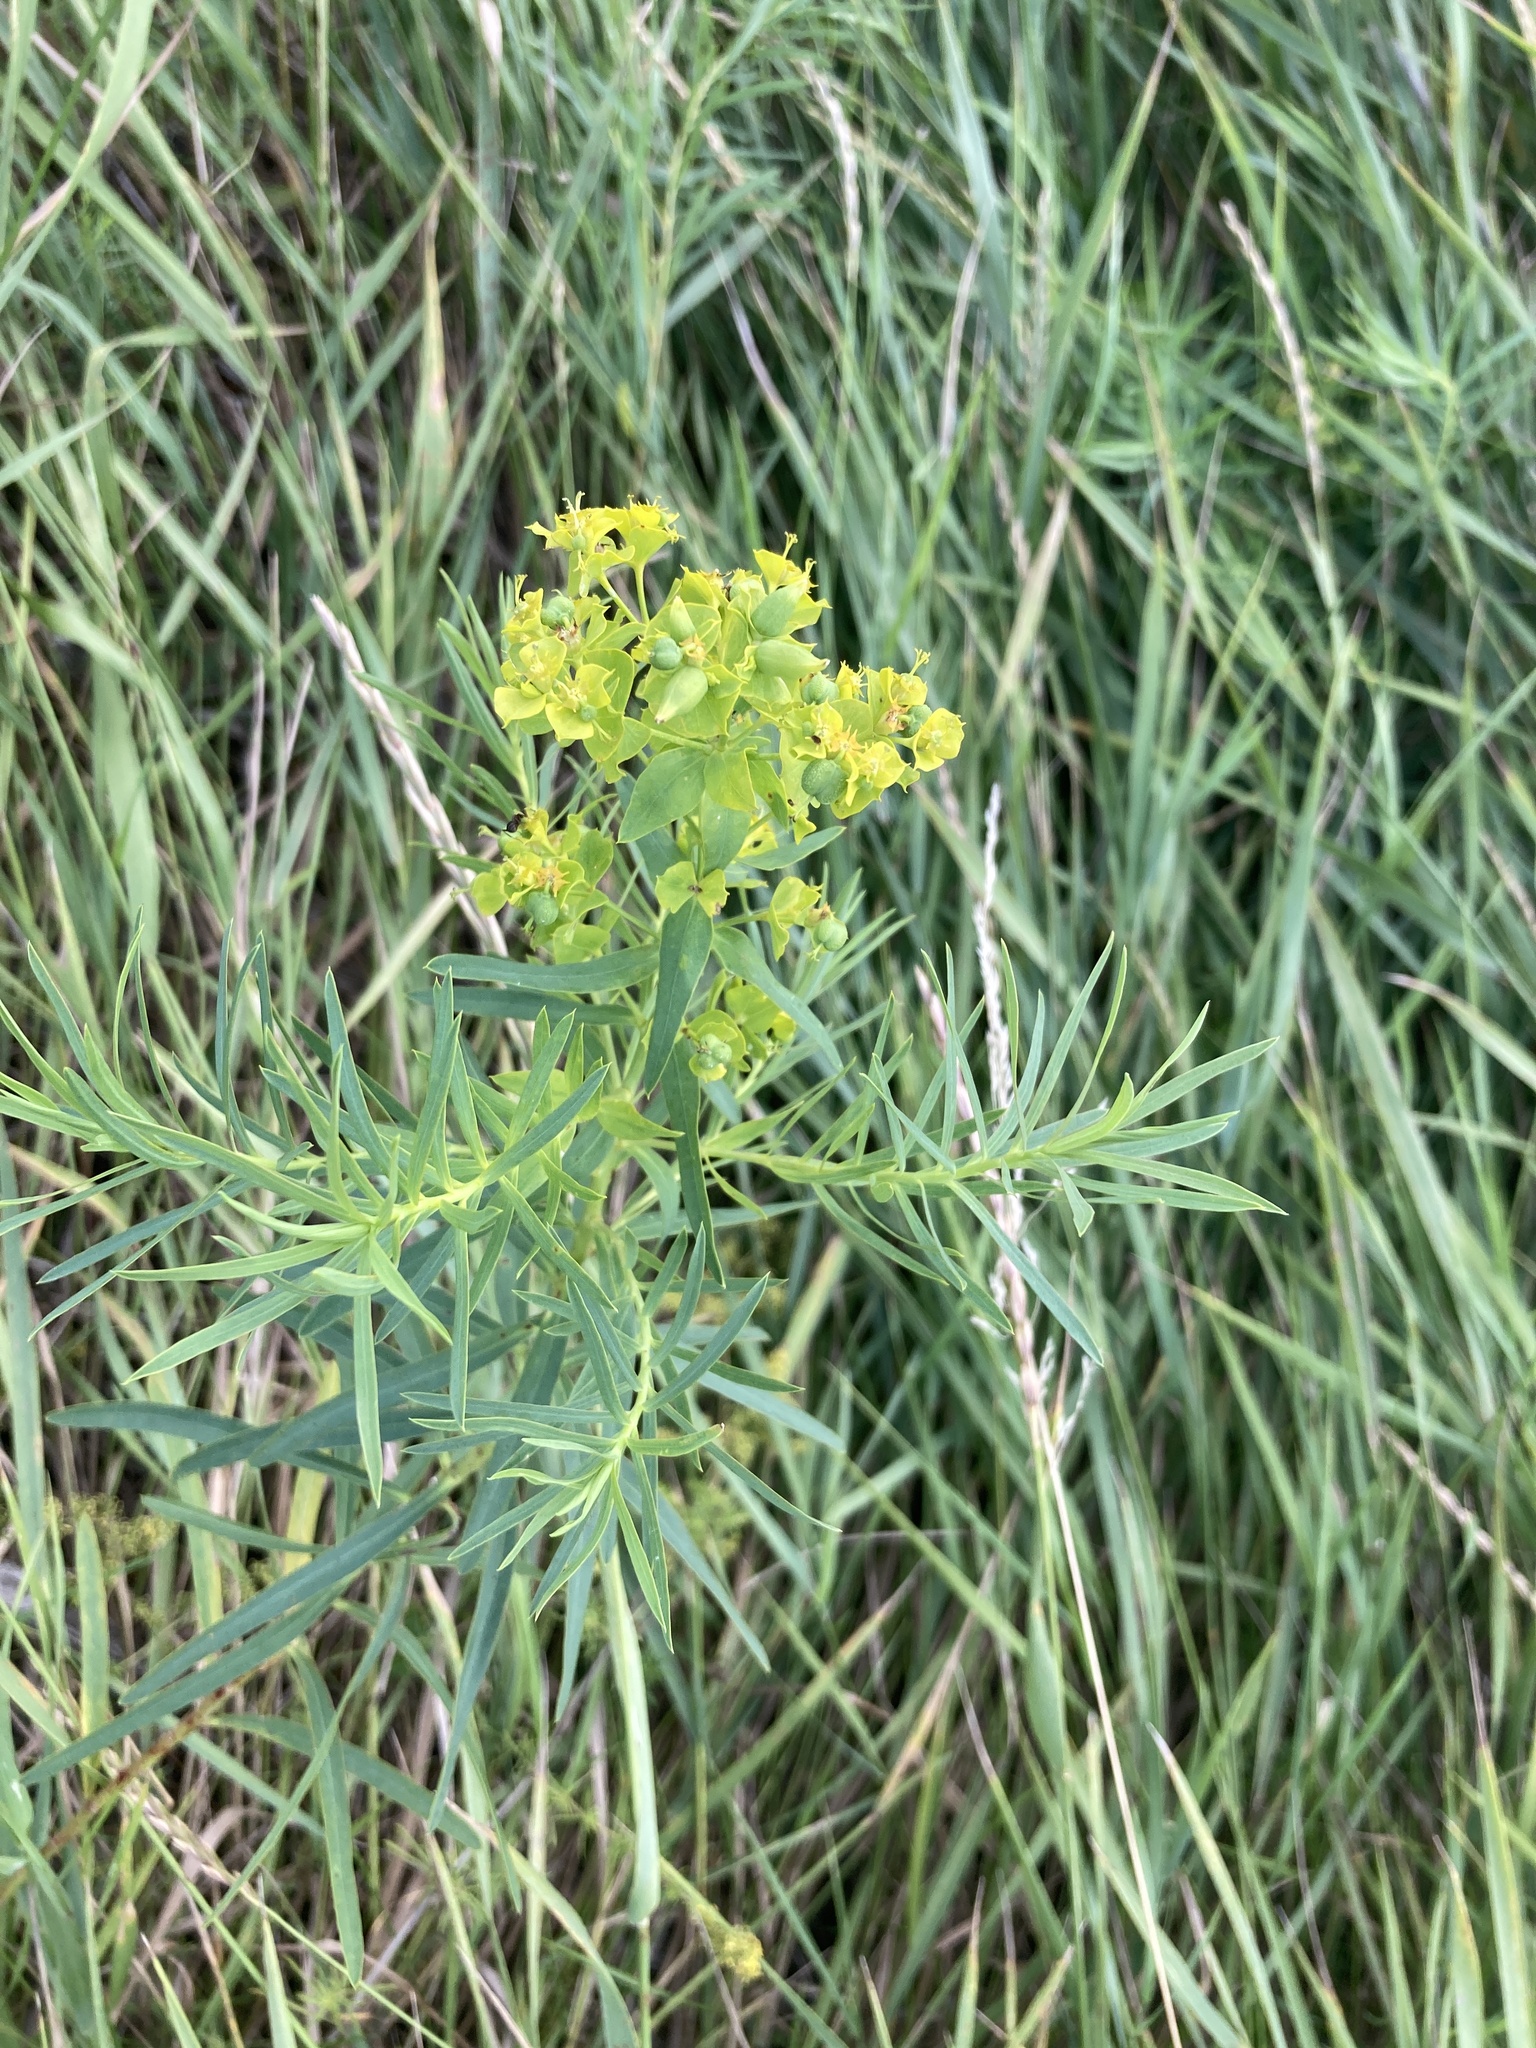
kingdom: Plantae
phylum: Tracheophyta
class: Magnoliopsida
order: Malpighiales
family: Euphorbiaceae
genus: Euphorbia
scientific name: Euphorbia virgata
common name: Leafy spurge
